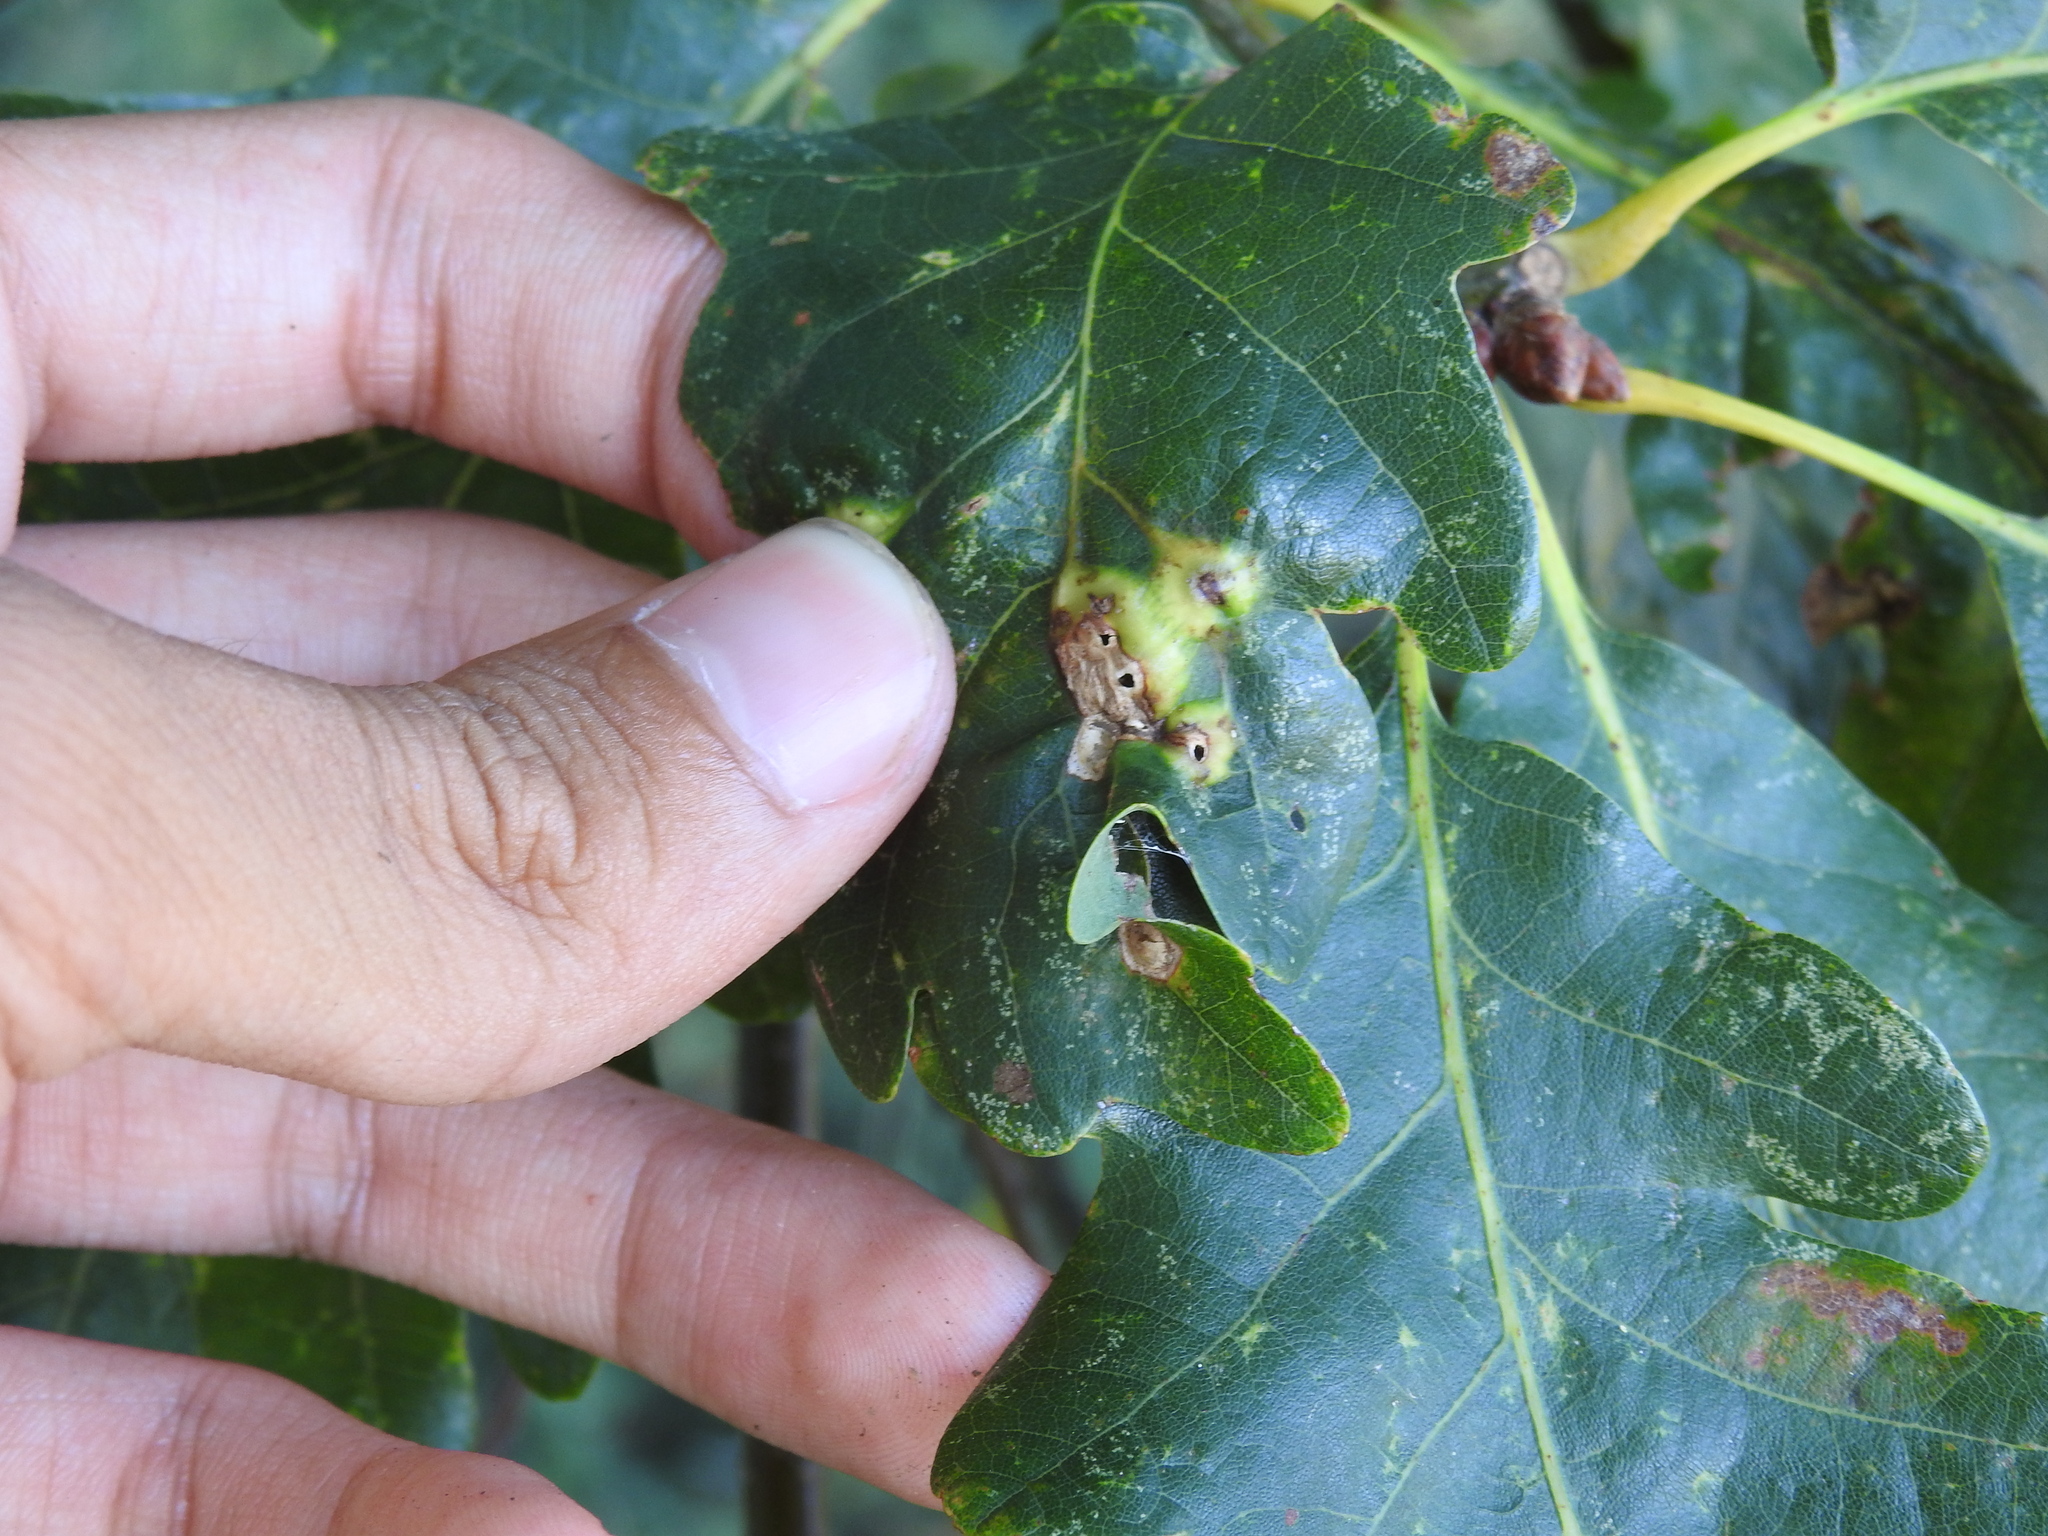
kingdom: Animalia
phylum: Arthropoda
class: Insecta
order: Hymenoptera
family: Cynipidae
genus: Andricus
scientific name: Andricus curvator
